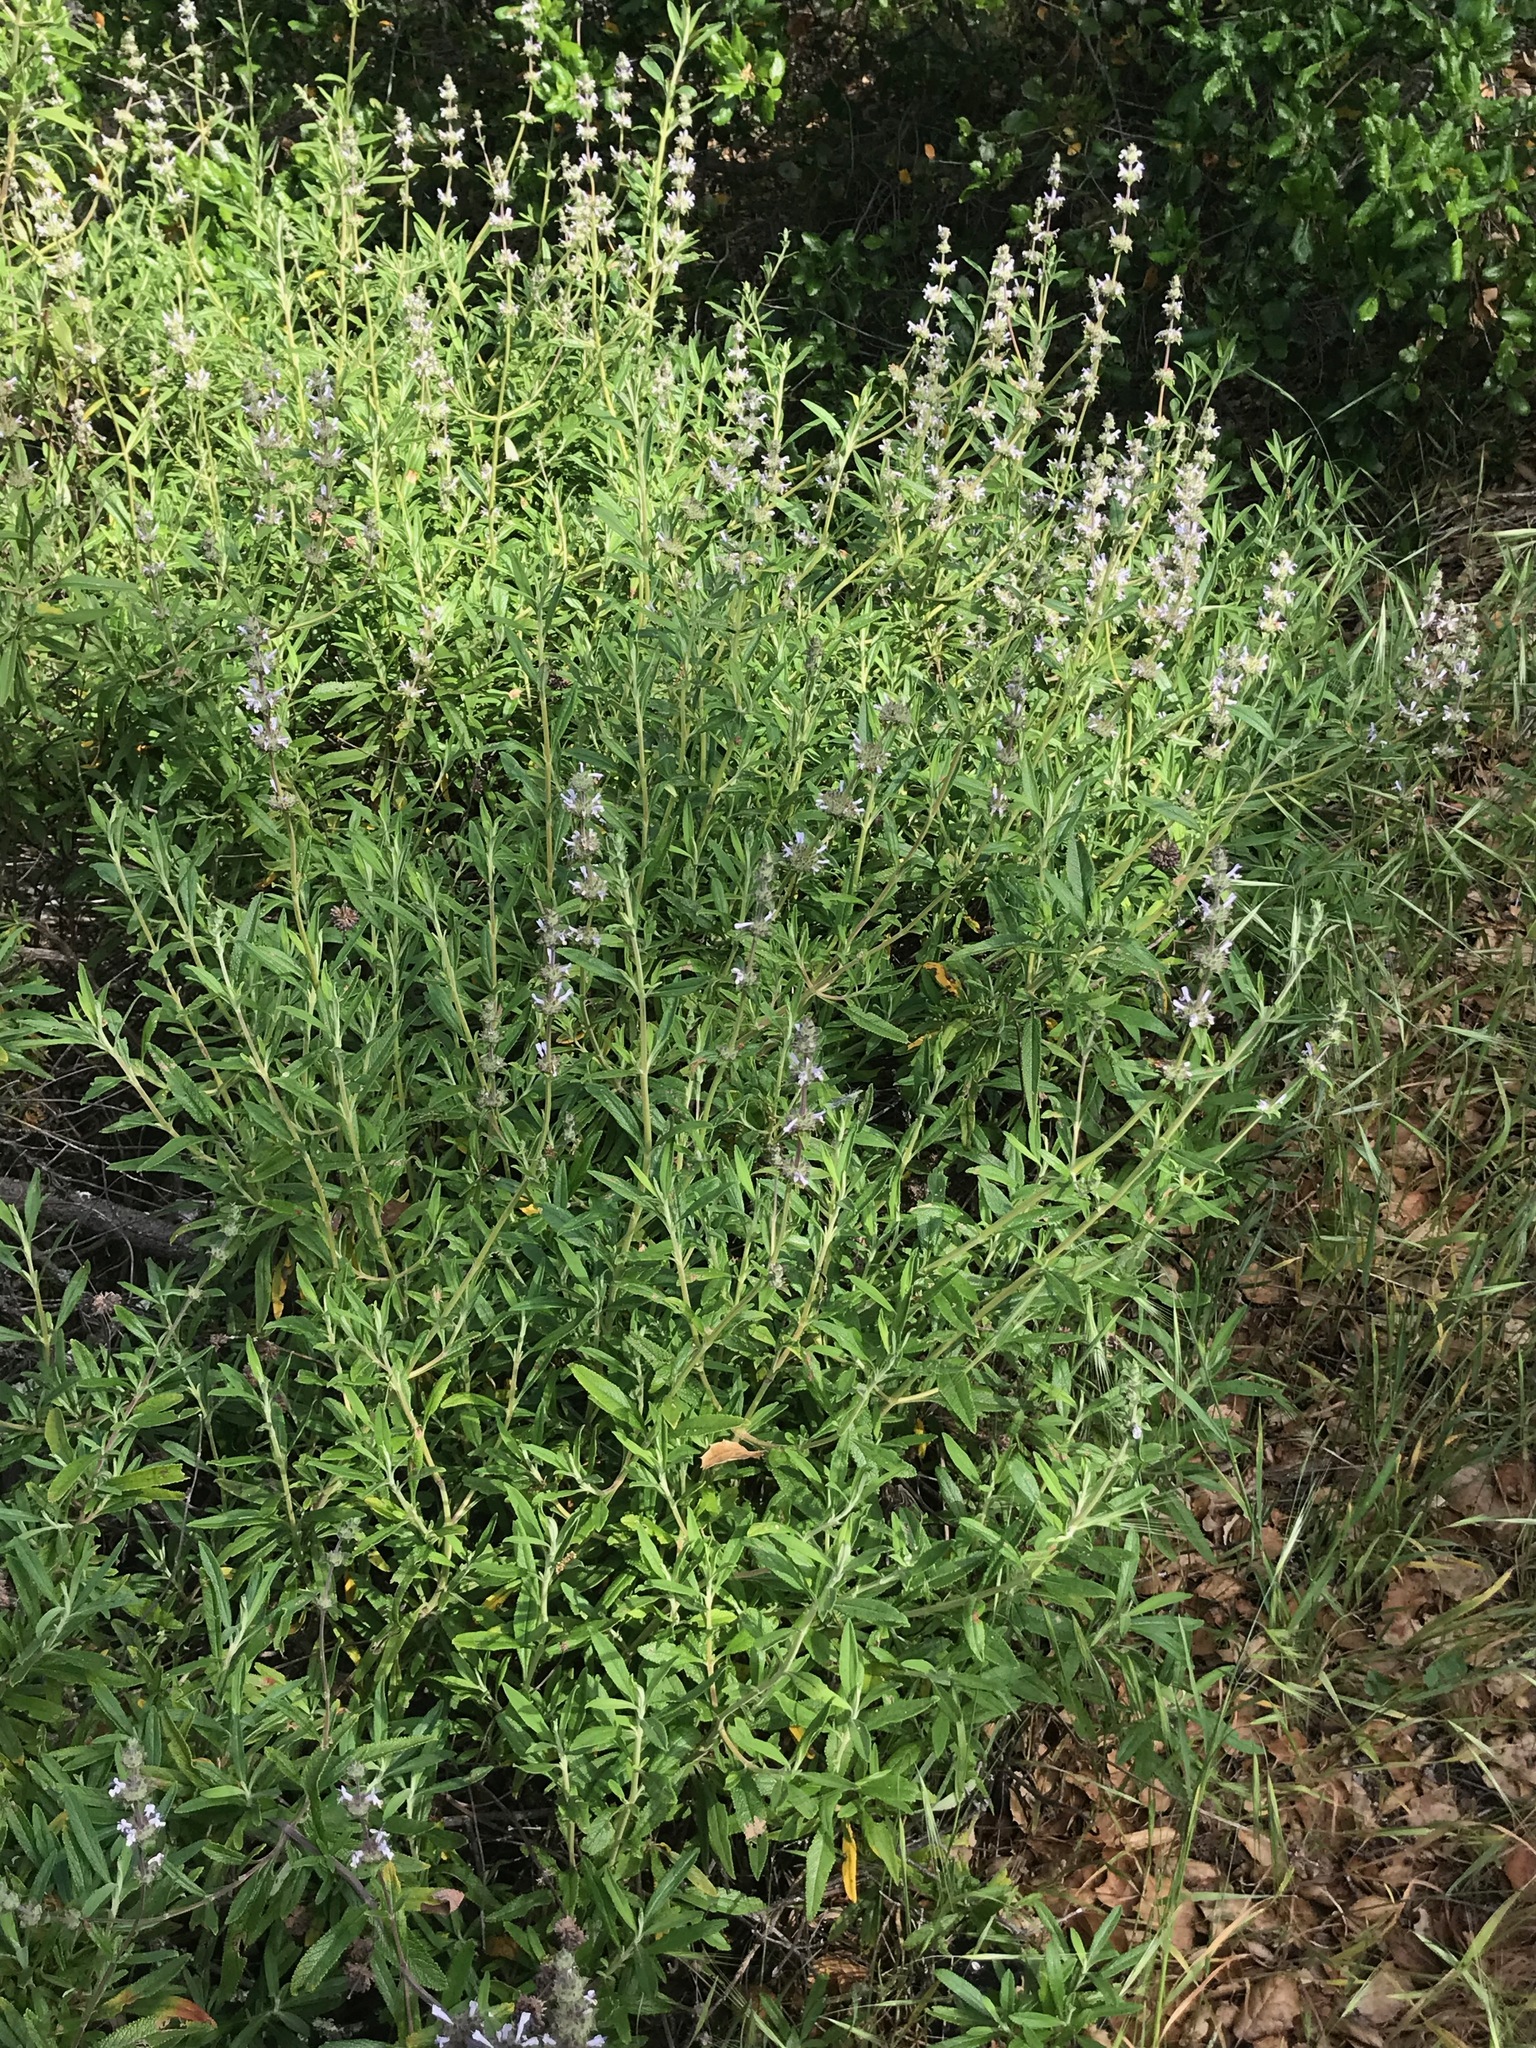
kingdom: Plantae
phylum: Tracheophyta
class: Magnoliopsida
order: Lamiales
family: Lamiaceae
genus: Salvia
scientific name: Salvia mellifera
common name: Black sage
